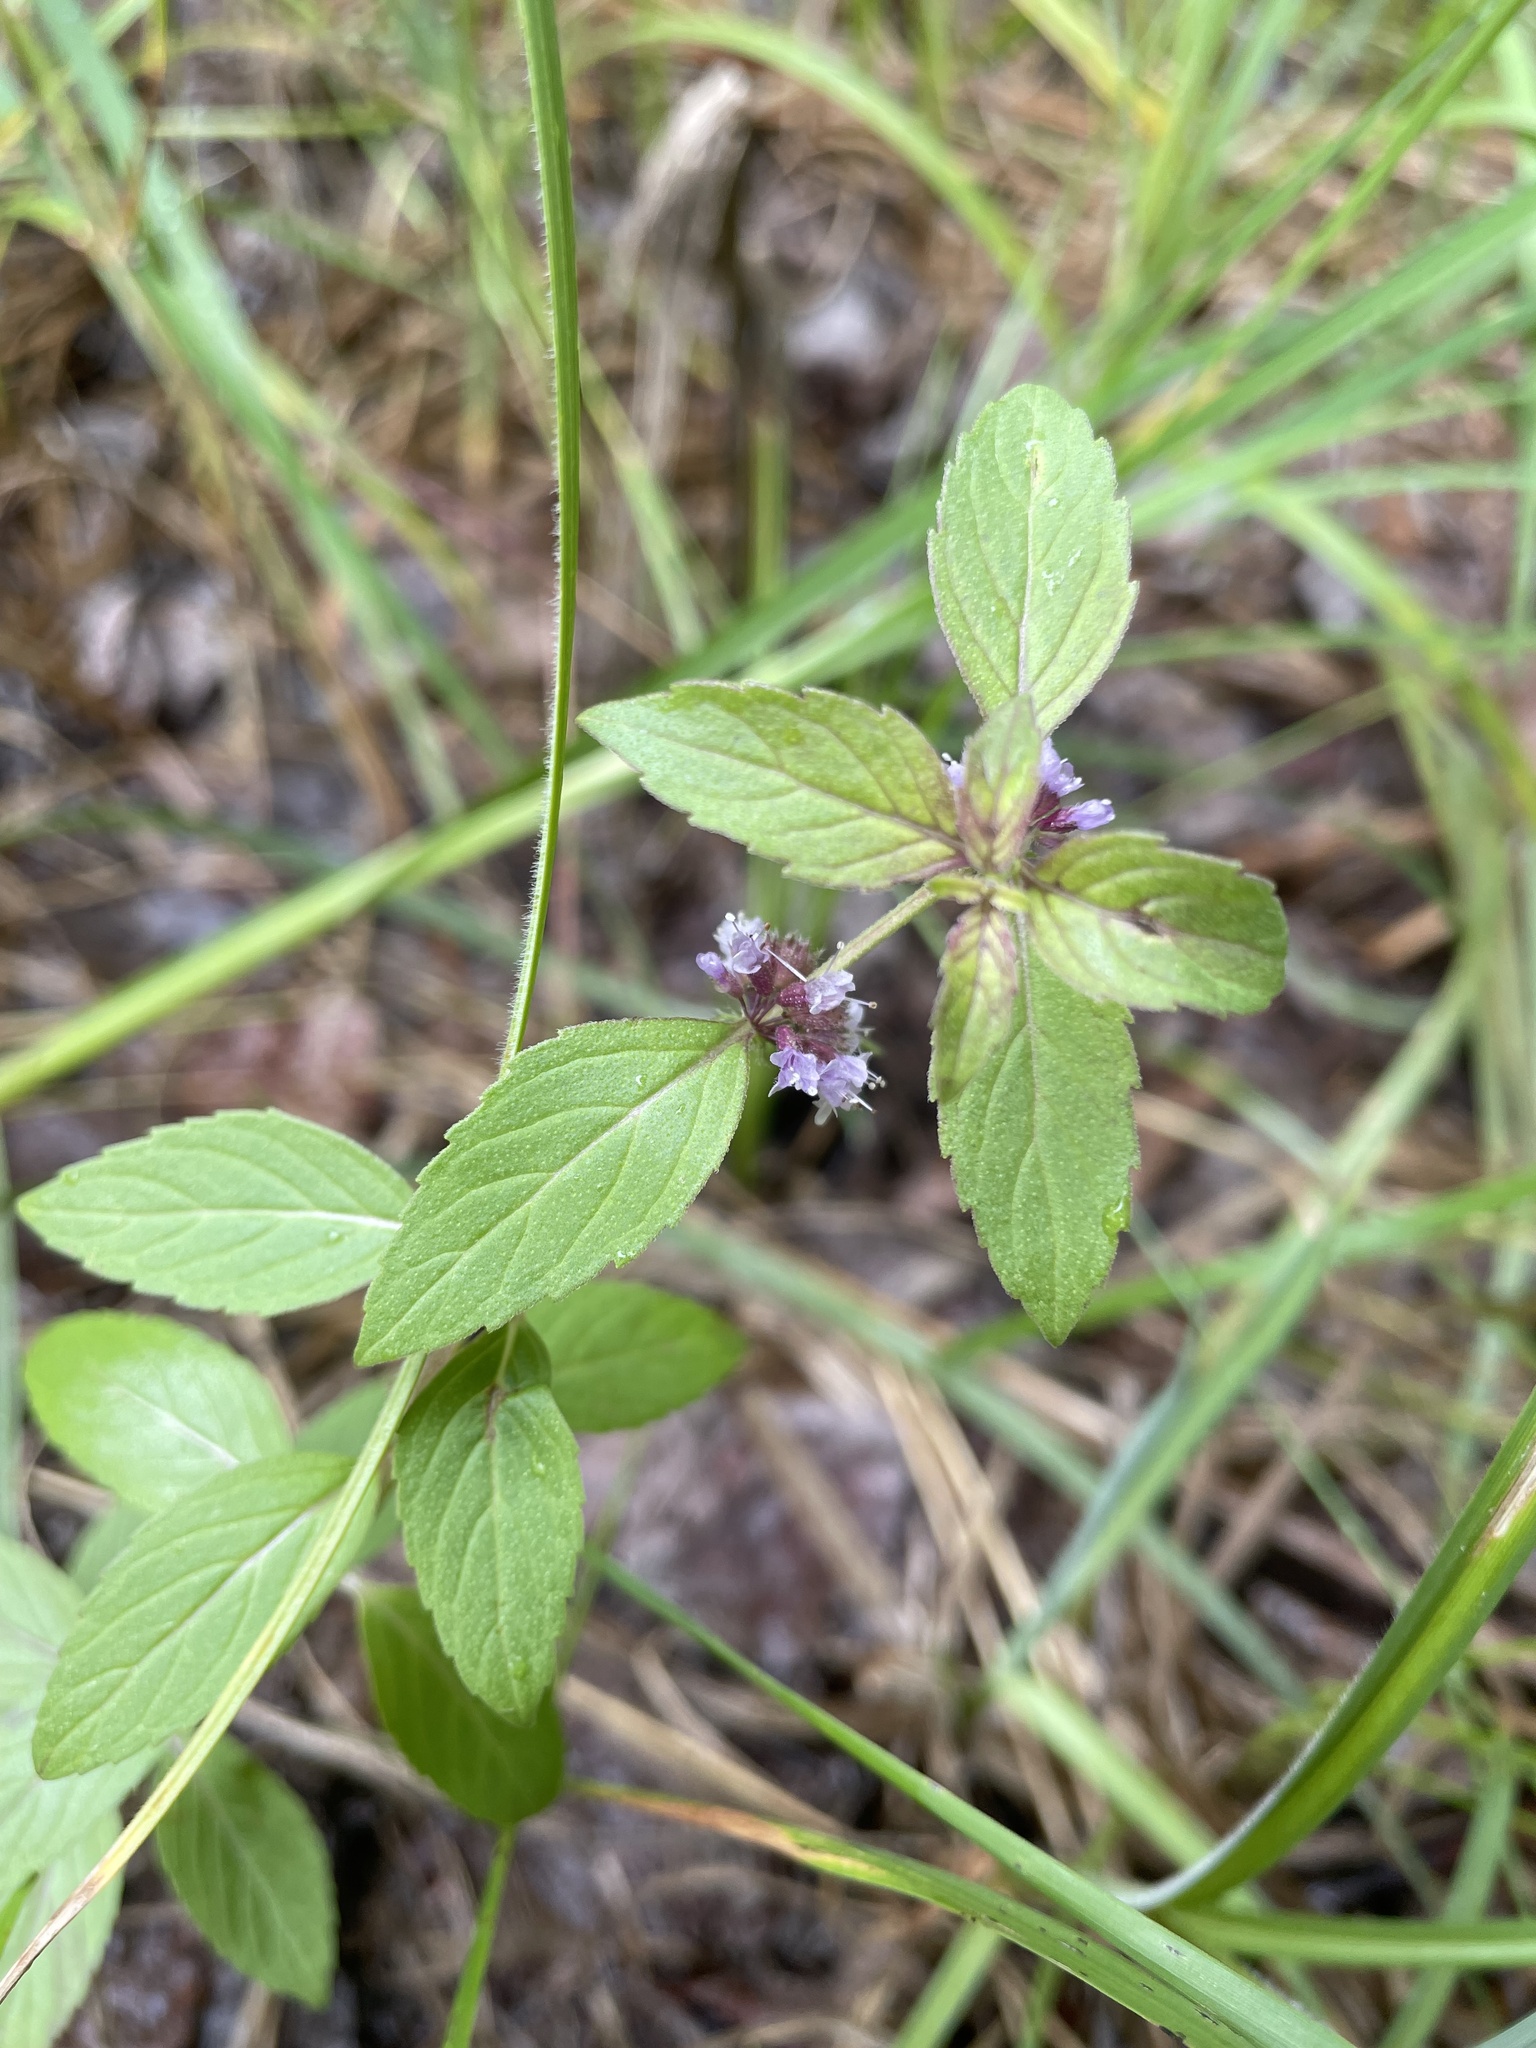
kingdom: Plantae
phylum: Tracheophyta
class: Magnoliopsida
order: Lamiales
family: Lamiaceae
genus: Mentha
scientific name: Mentha canadensis
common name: American corn mint
